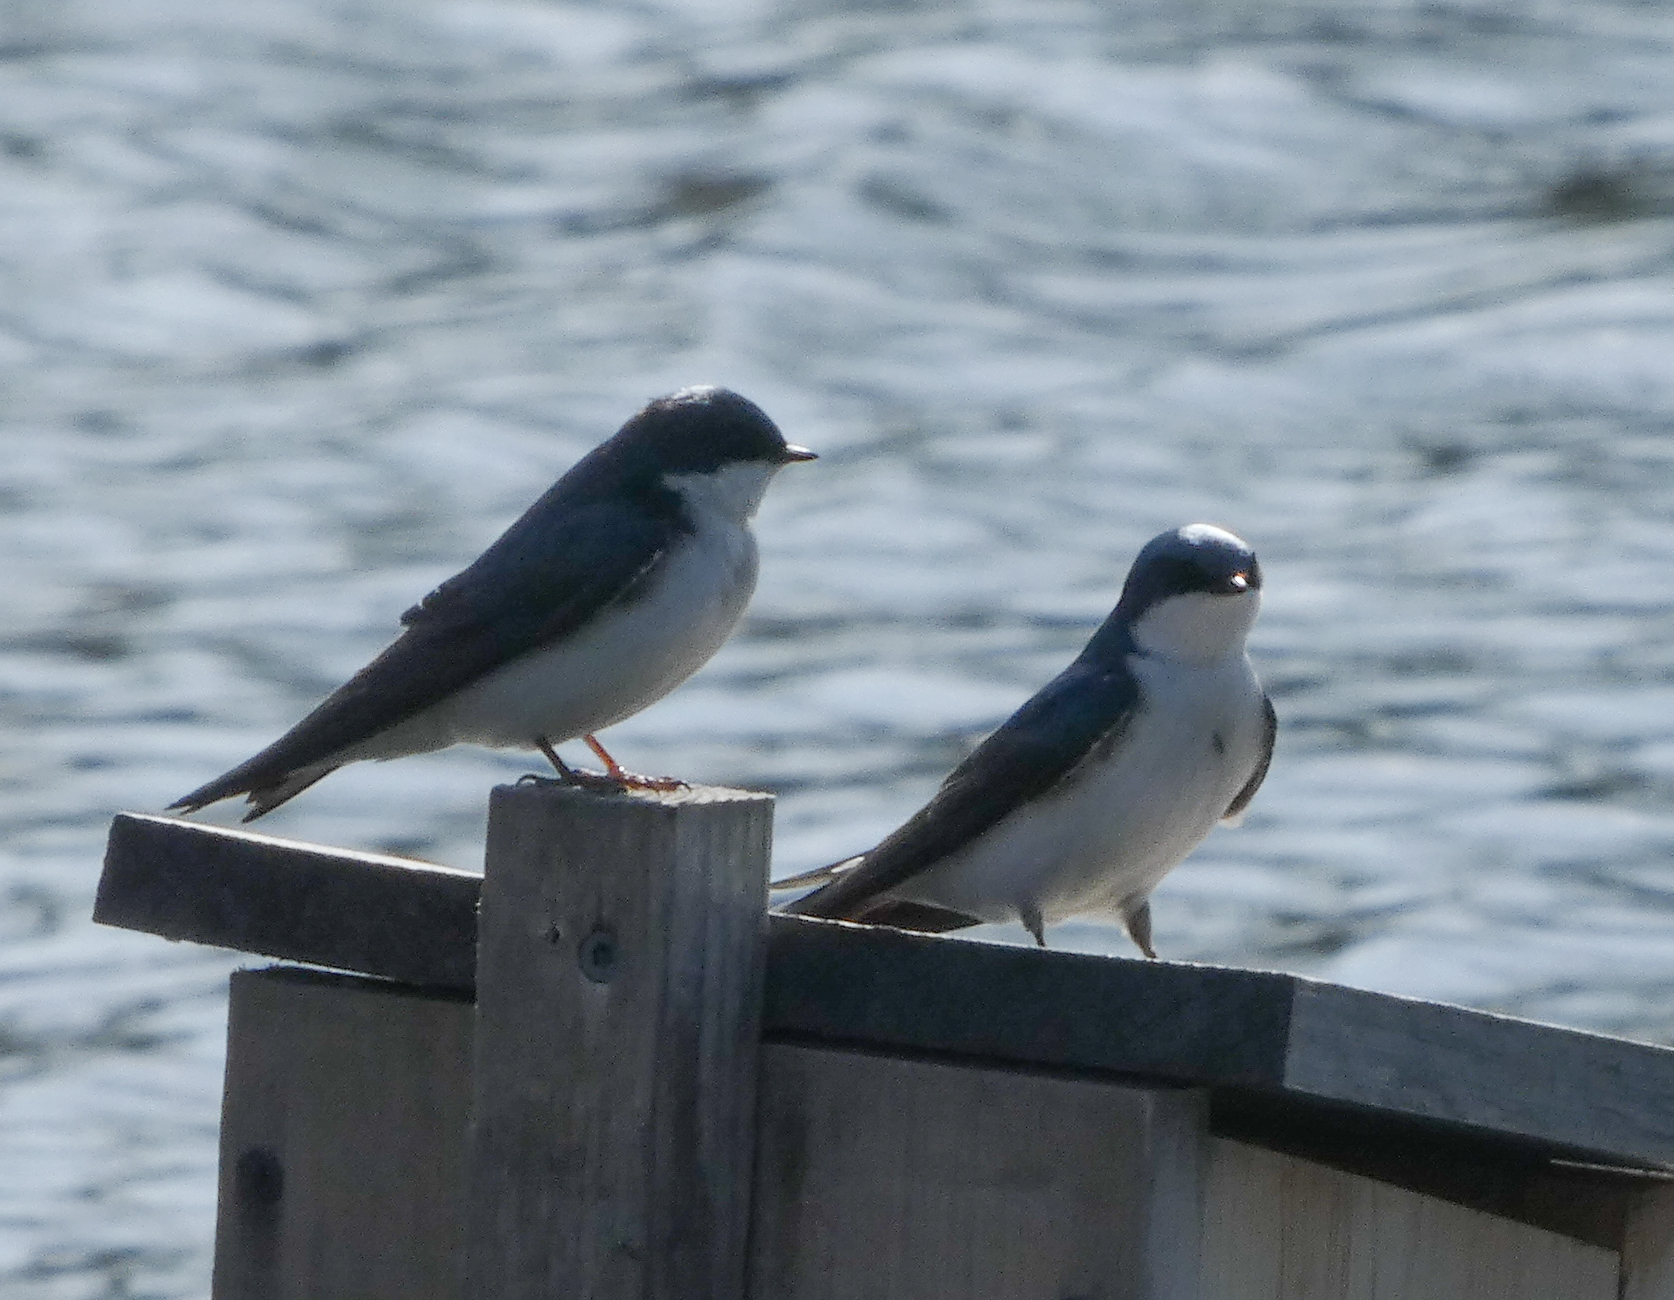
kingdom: Animalia
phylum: Chordata
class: Aves
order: Passeriformes
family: Hirundinidae
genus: Tachycineta
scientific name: Tachycineta bicolor
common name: Tree swallow
